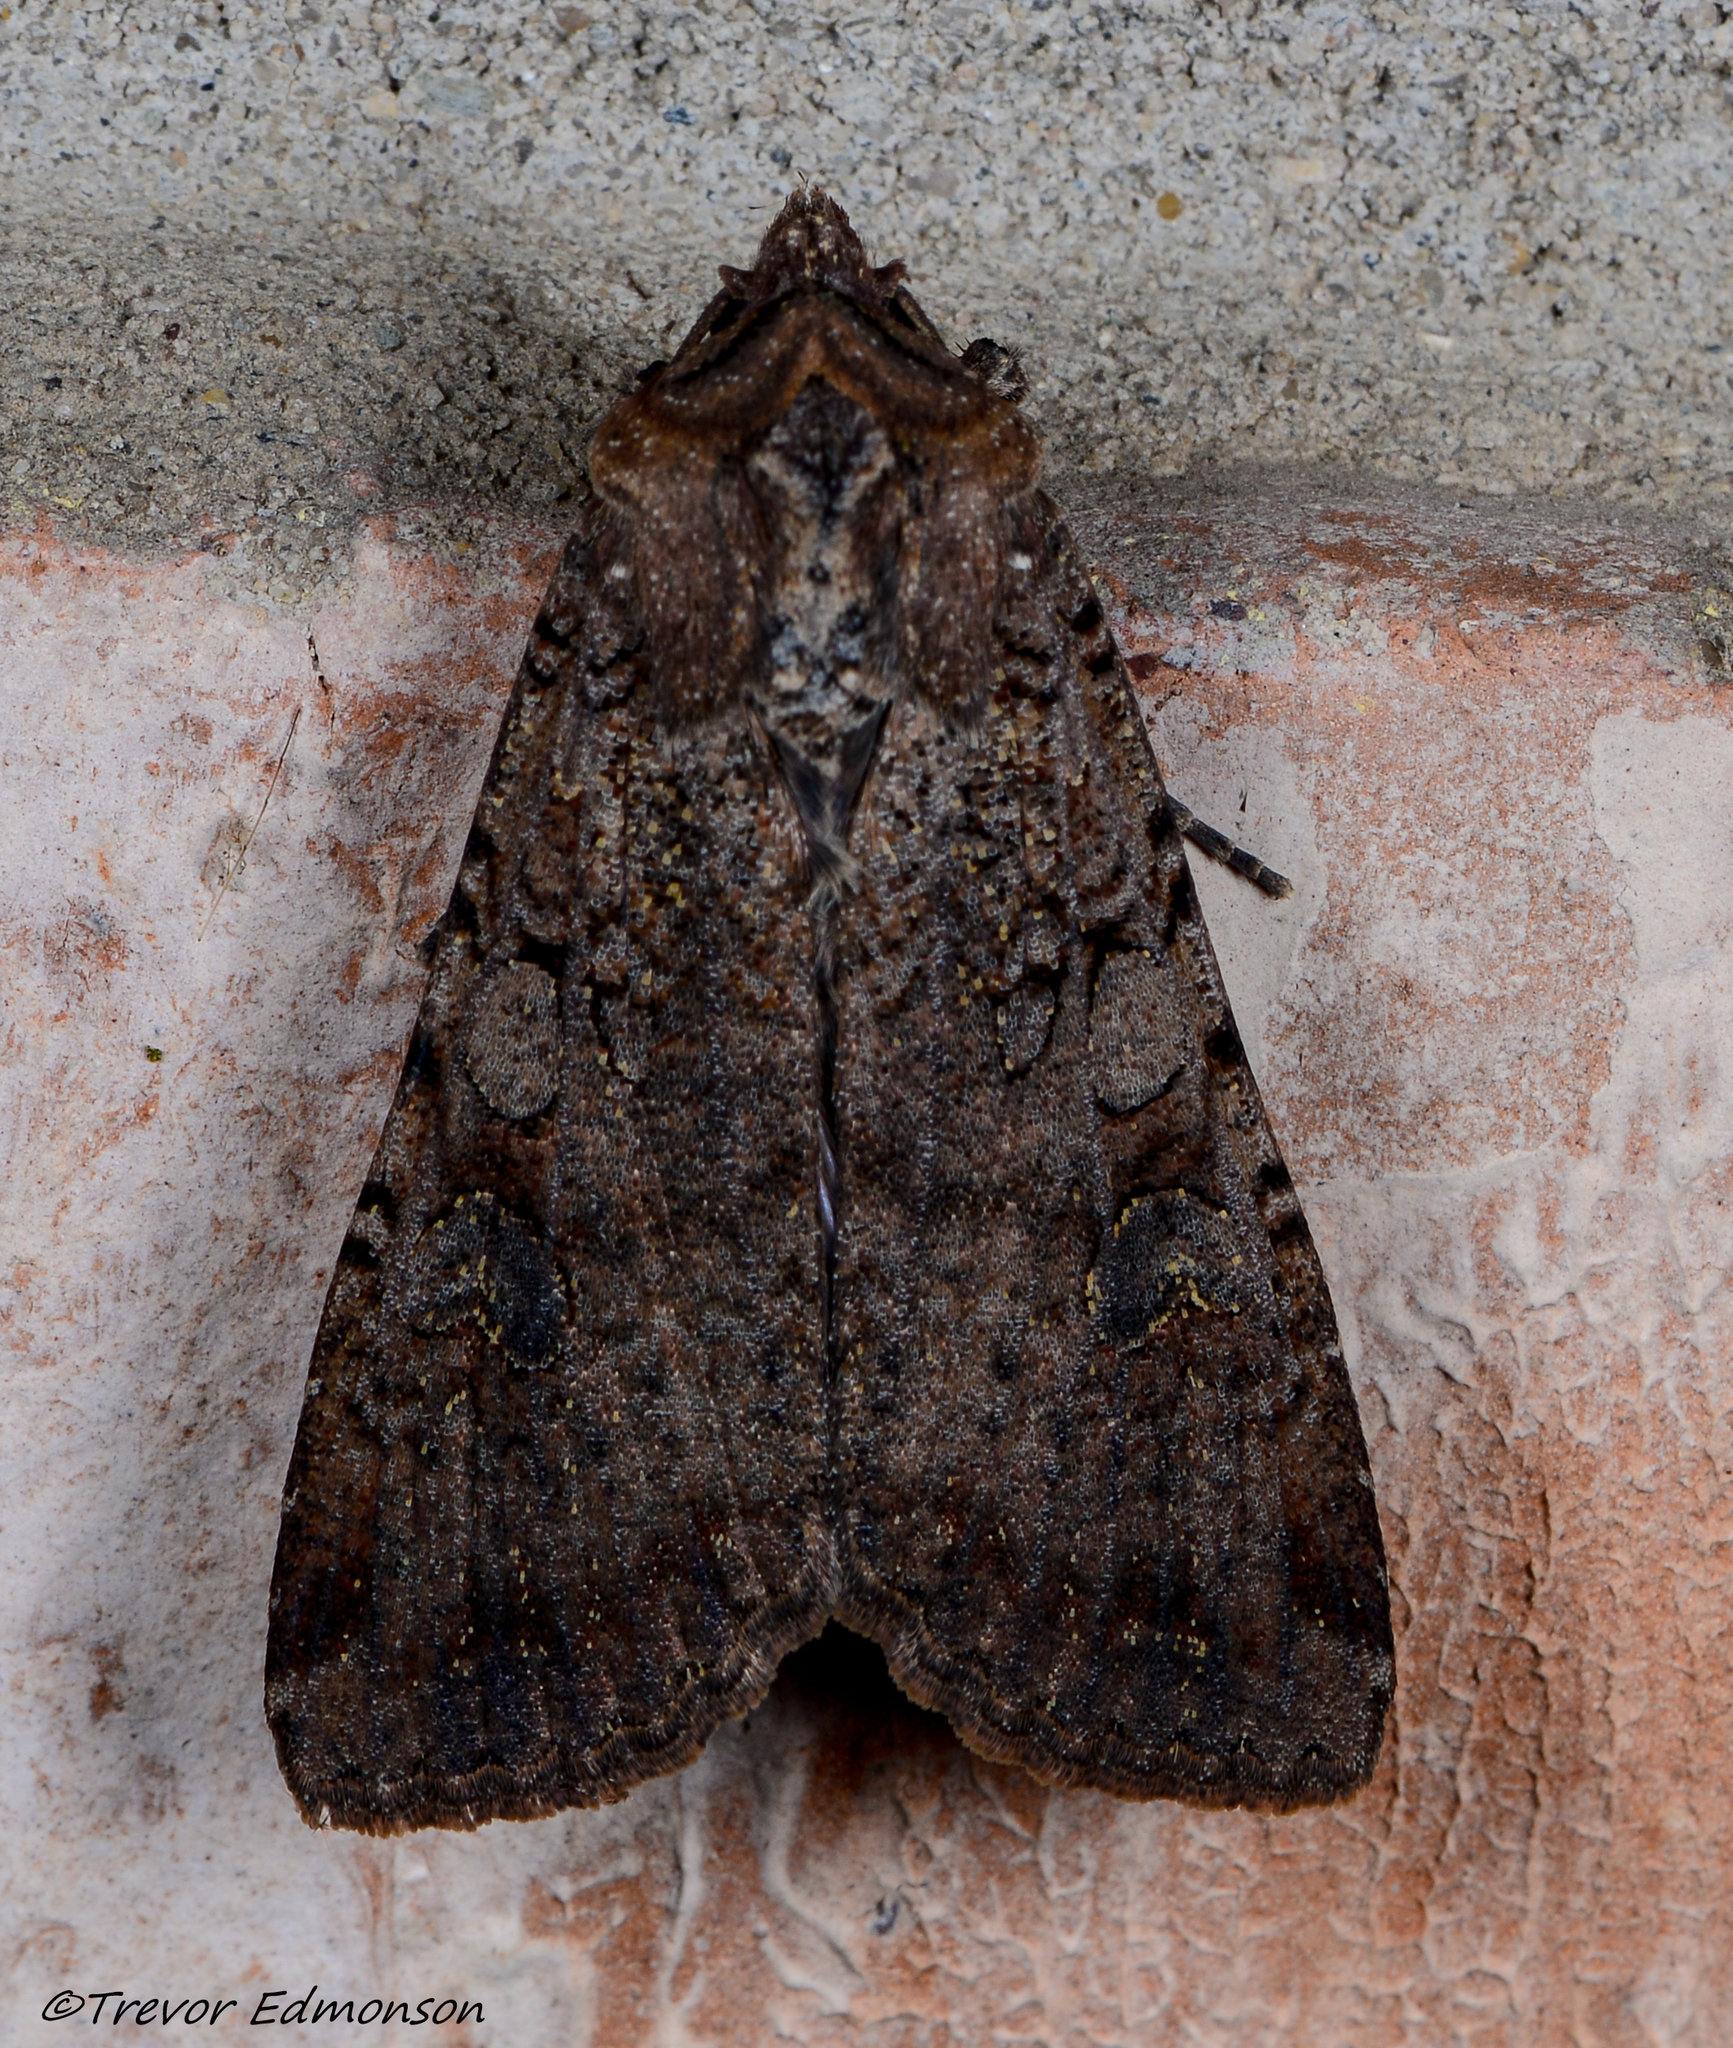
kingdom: Animalia
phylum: Arthropoda
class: Insecta
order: Lepidoptera
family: Noctuidae
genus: Peridroma
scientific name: Peridroma saucia
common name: Pearly underwing
